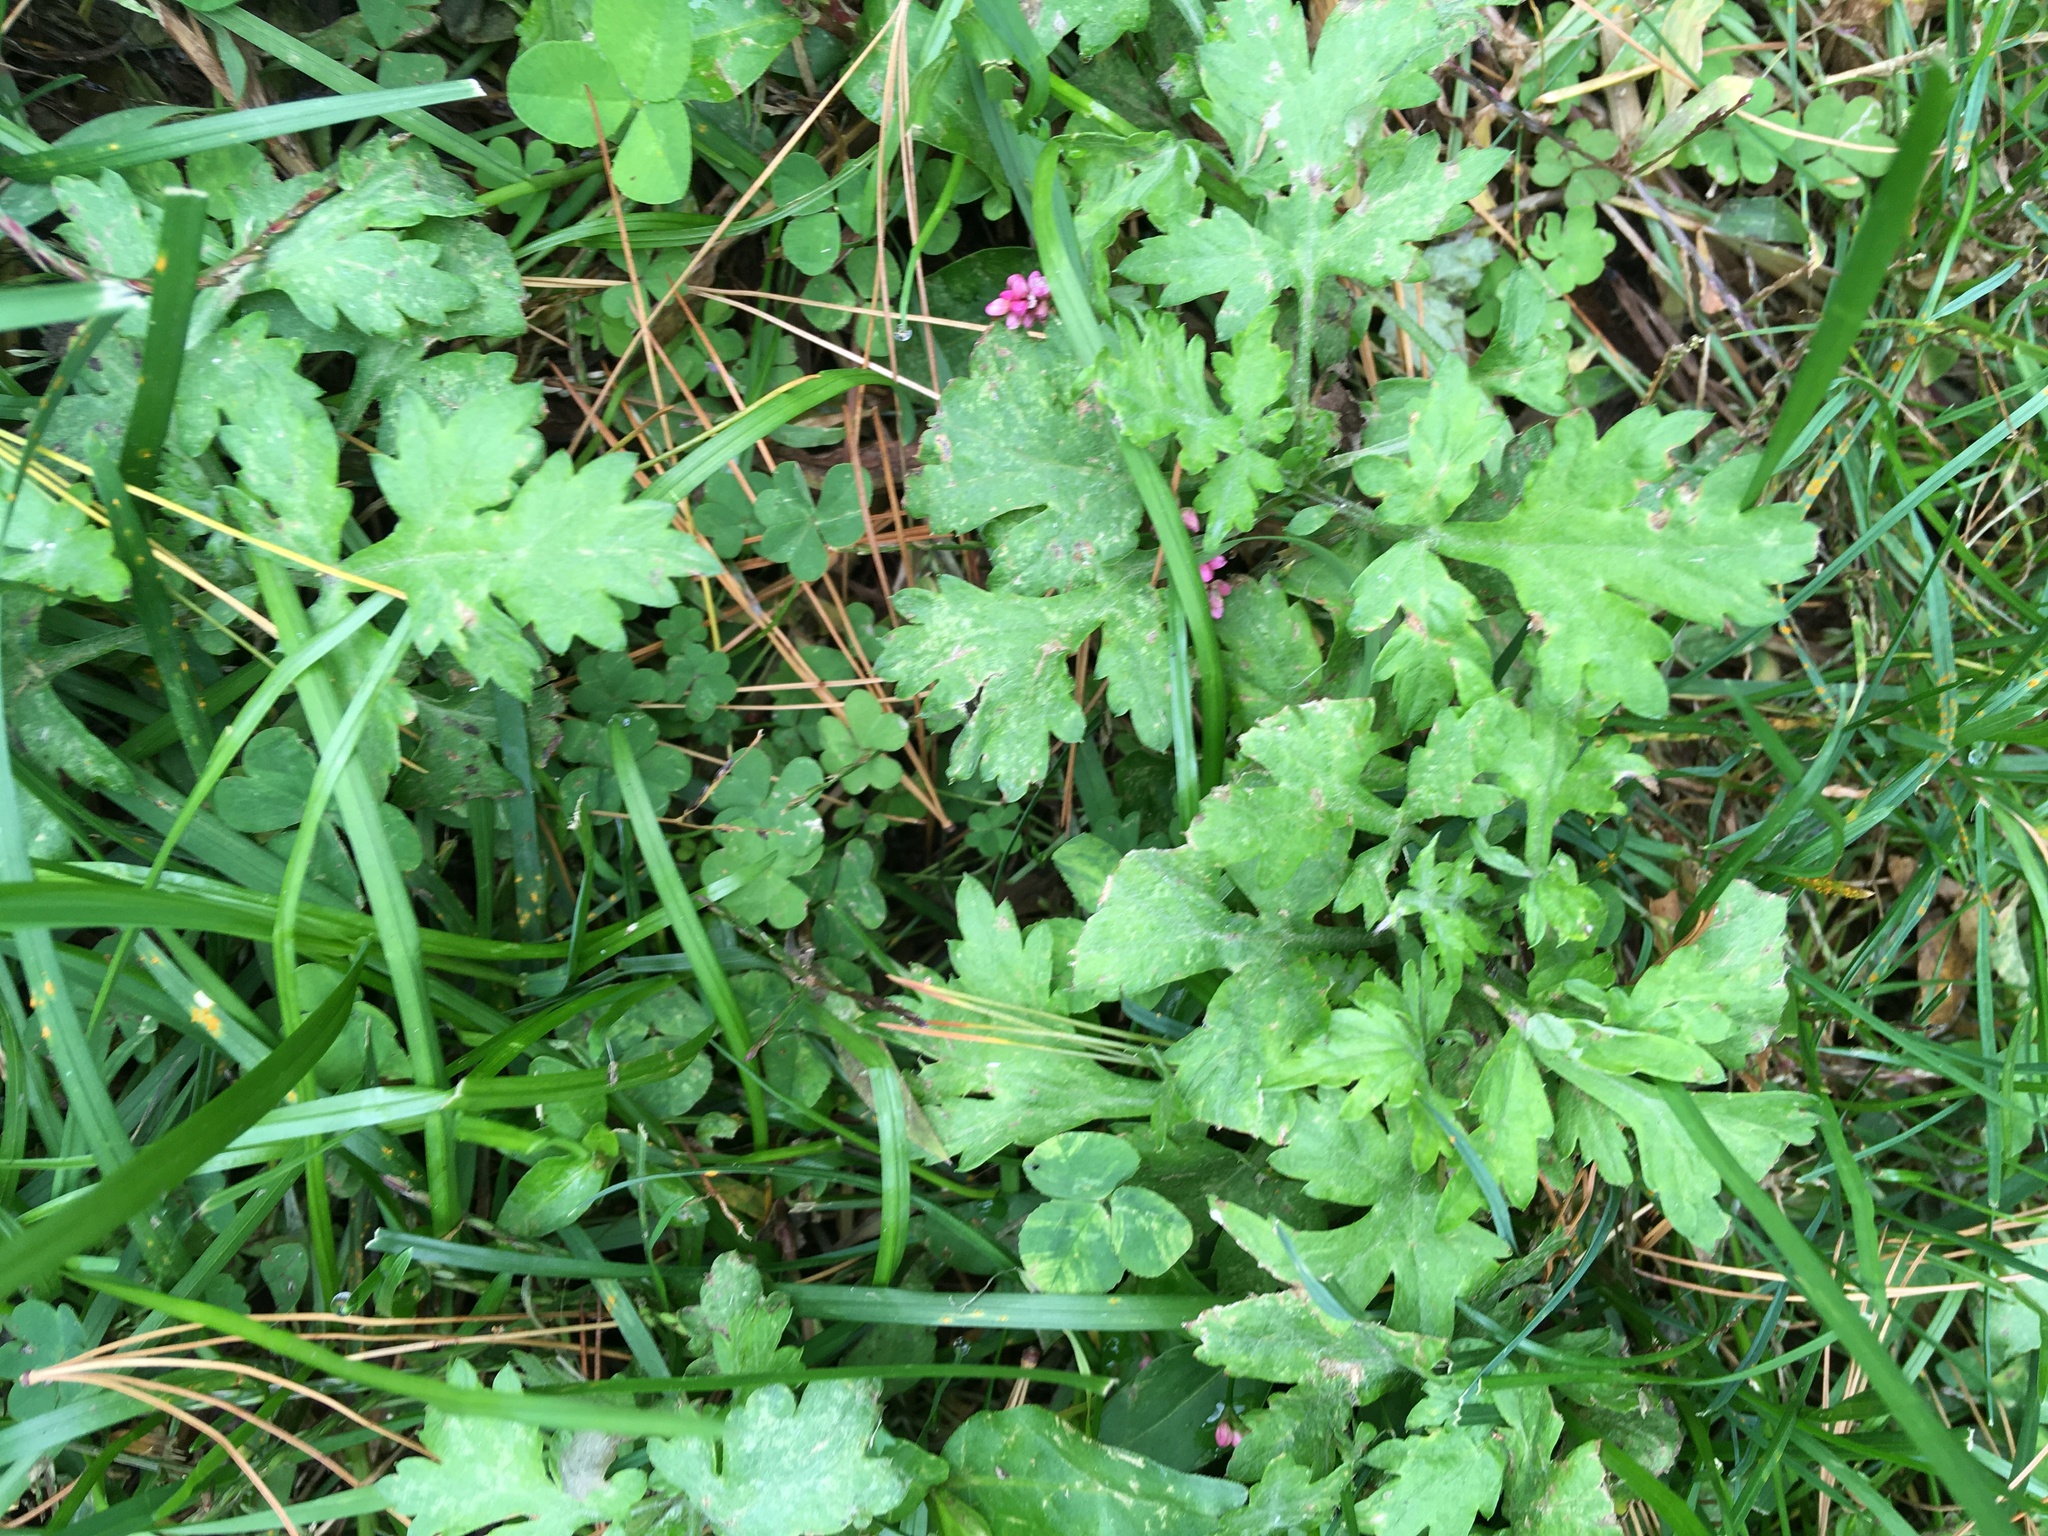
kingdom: Plantae
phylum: Tracheophyta
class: Magnoliopsida
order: Asterales
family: Asteraceae
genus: Artemisia
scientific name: Artemisia vulgaris
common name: Mugwort
